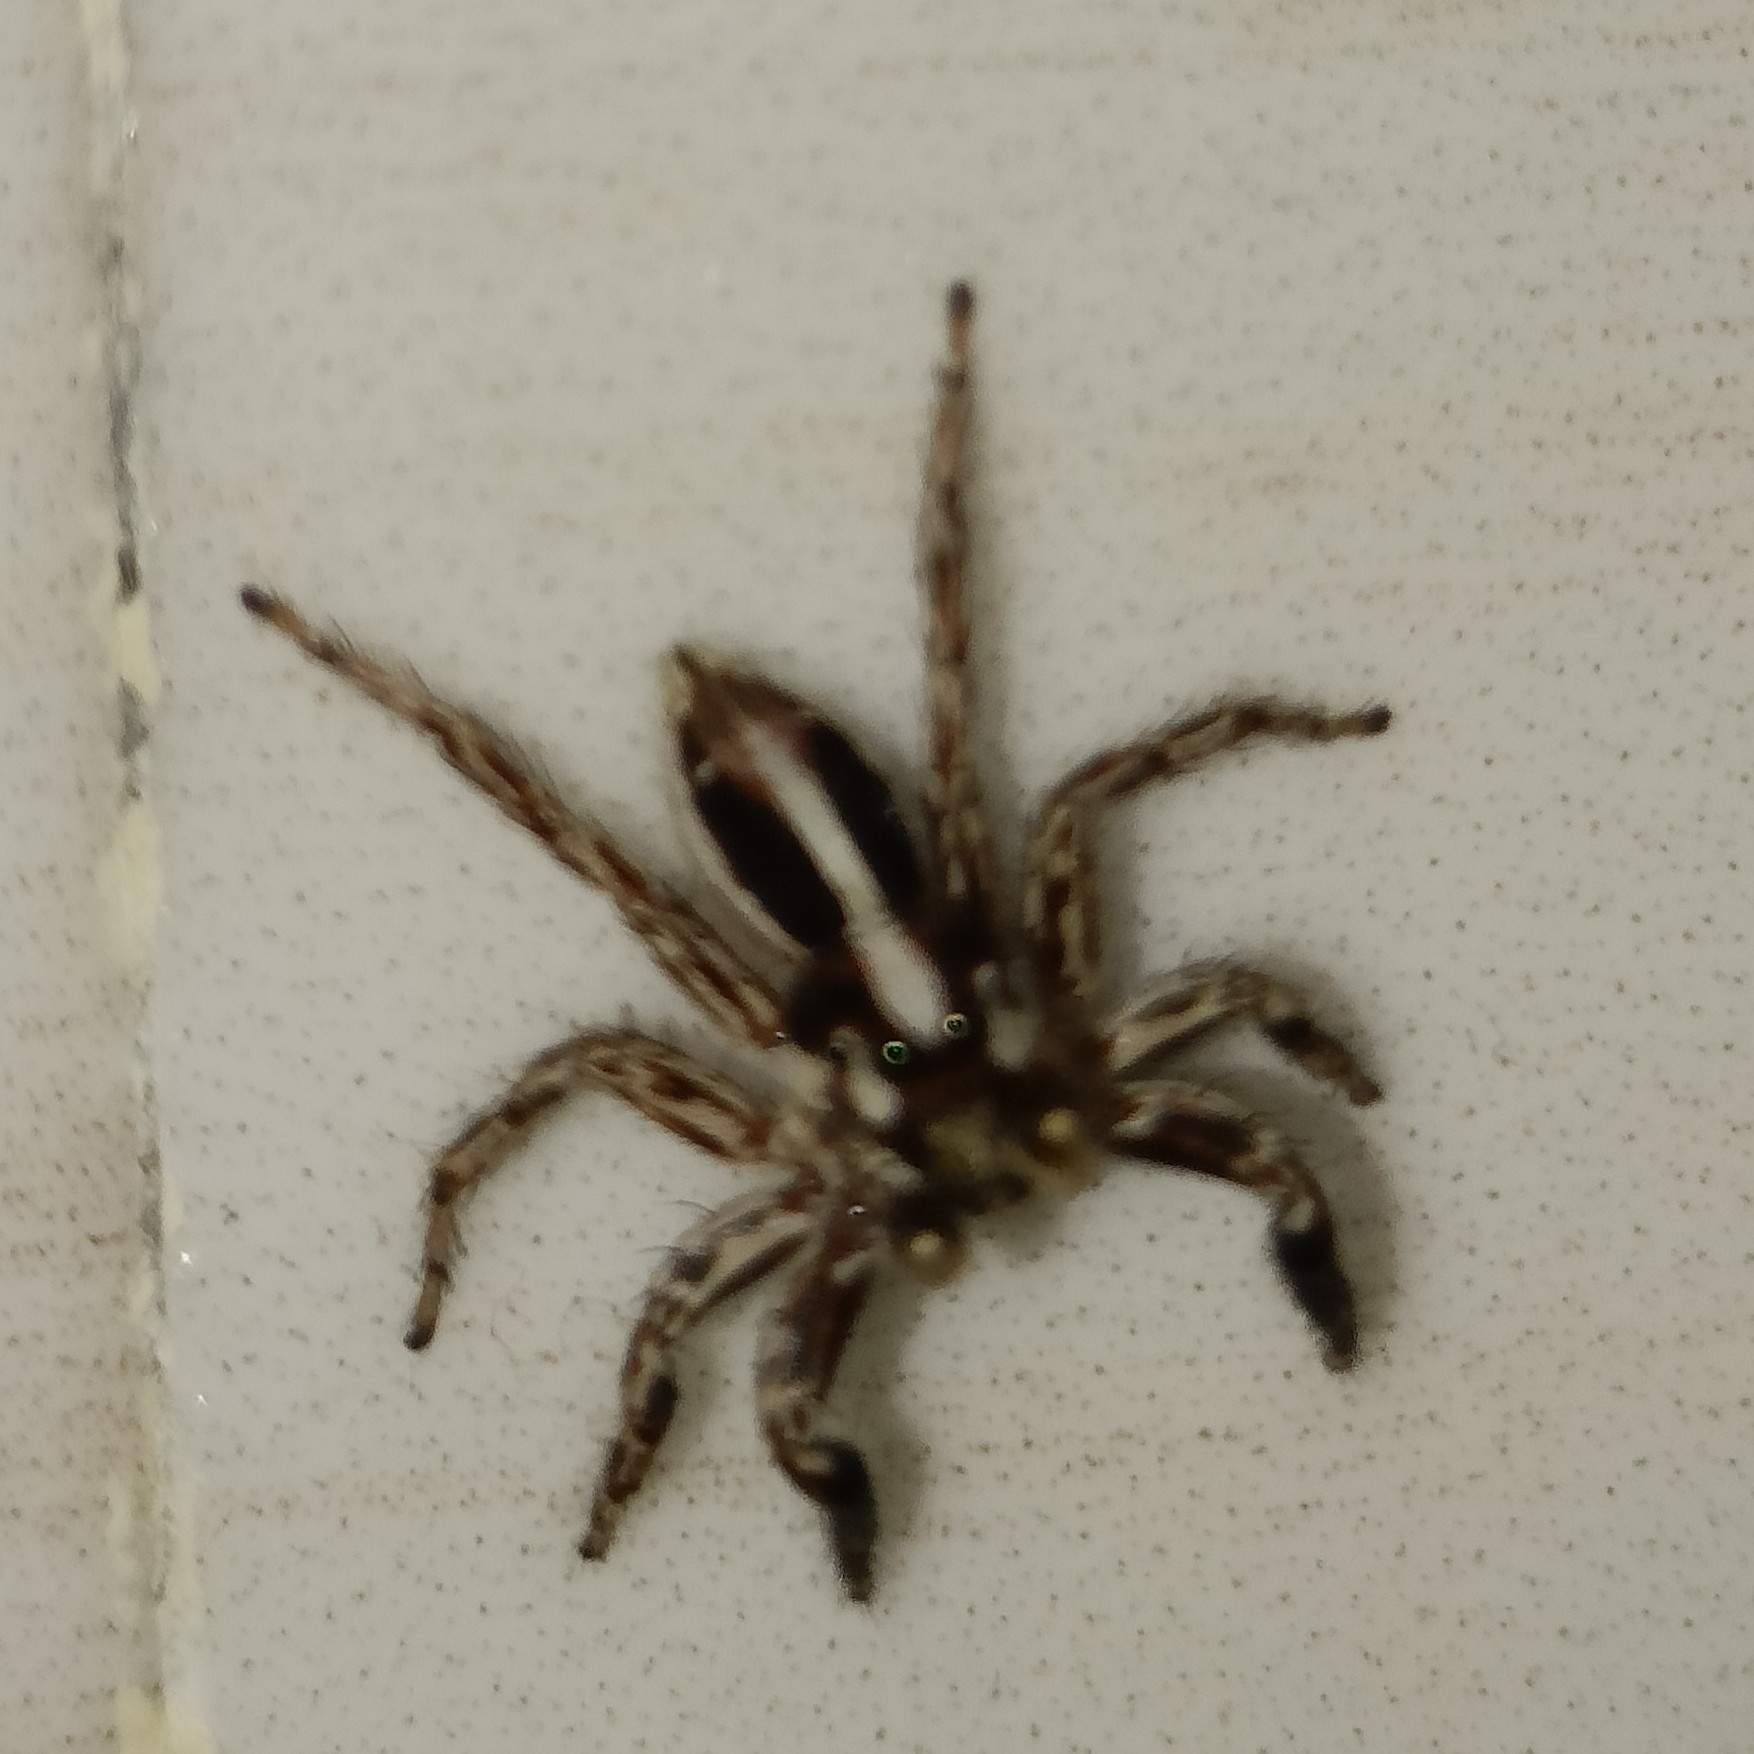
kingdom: Animalia
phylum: Arthropoda
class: Arachnida
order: Araneae
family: Salticidae
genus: Plexippus
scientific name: Plexippus paykulli
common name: Pantropical jumper
